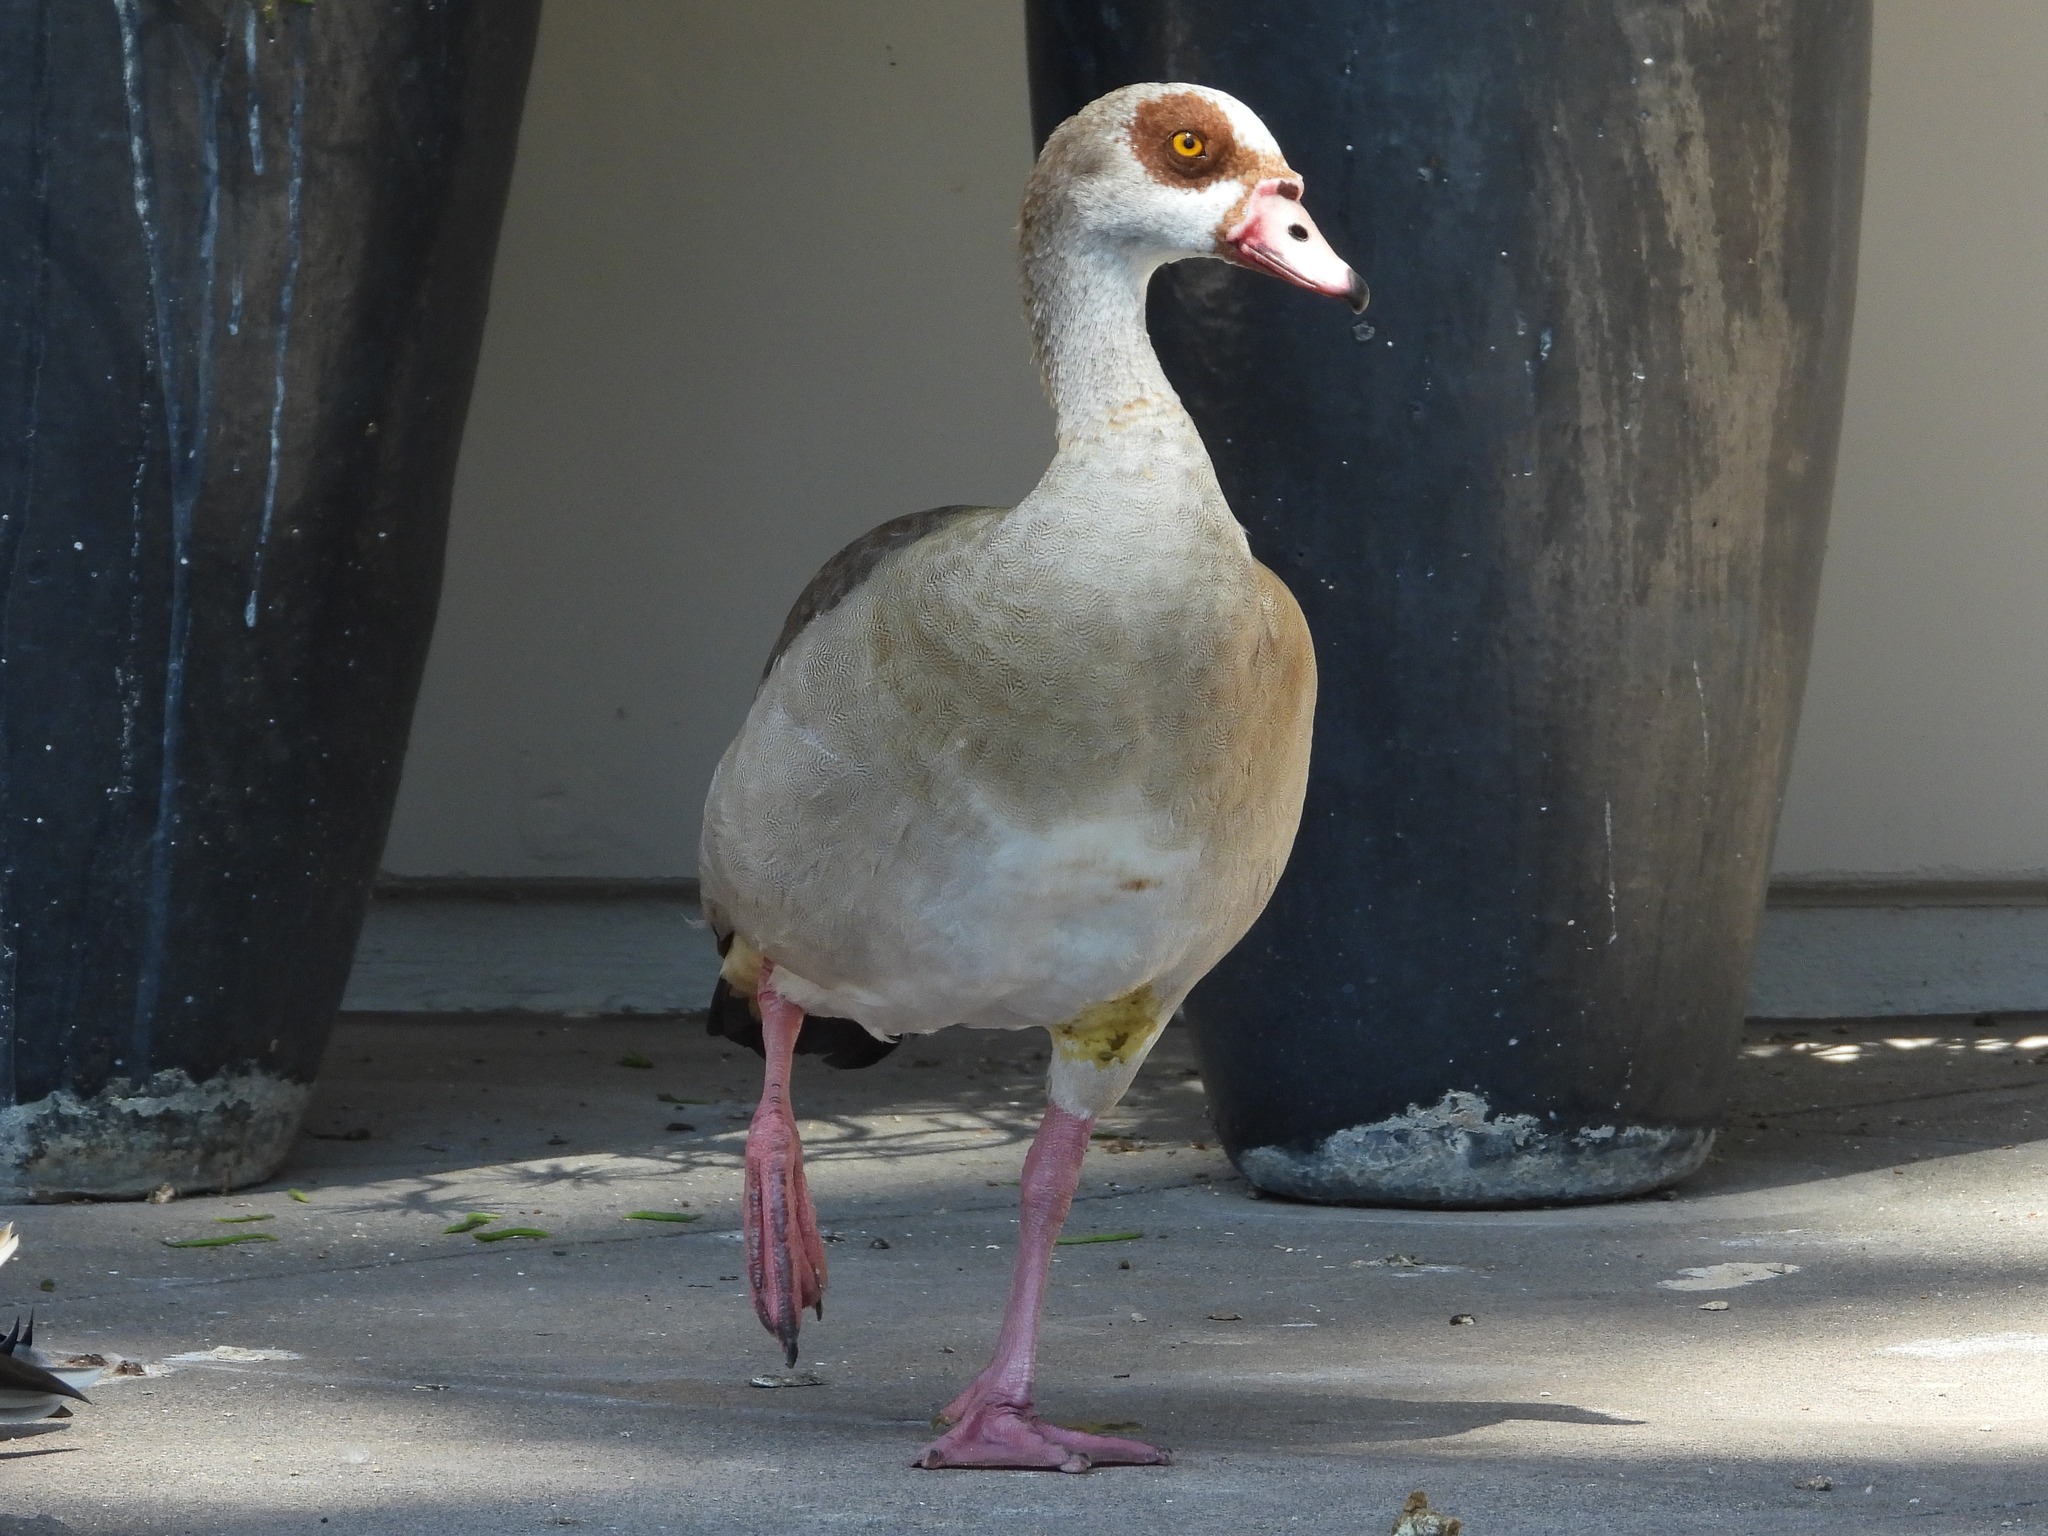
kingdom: Animalia
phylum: Chordata
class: Aves
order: Anseriformes
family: Anatidae
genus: Alopochen
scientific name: Alopochen aegyptiaca
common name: Egyptian goose
